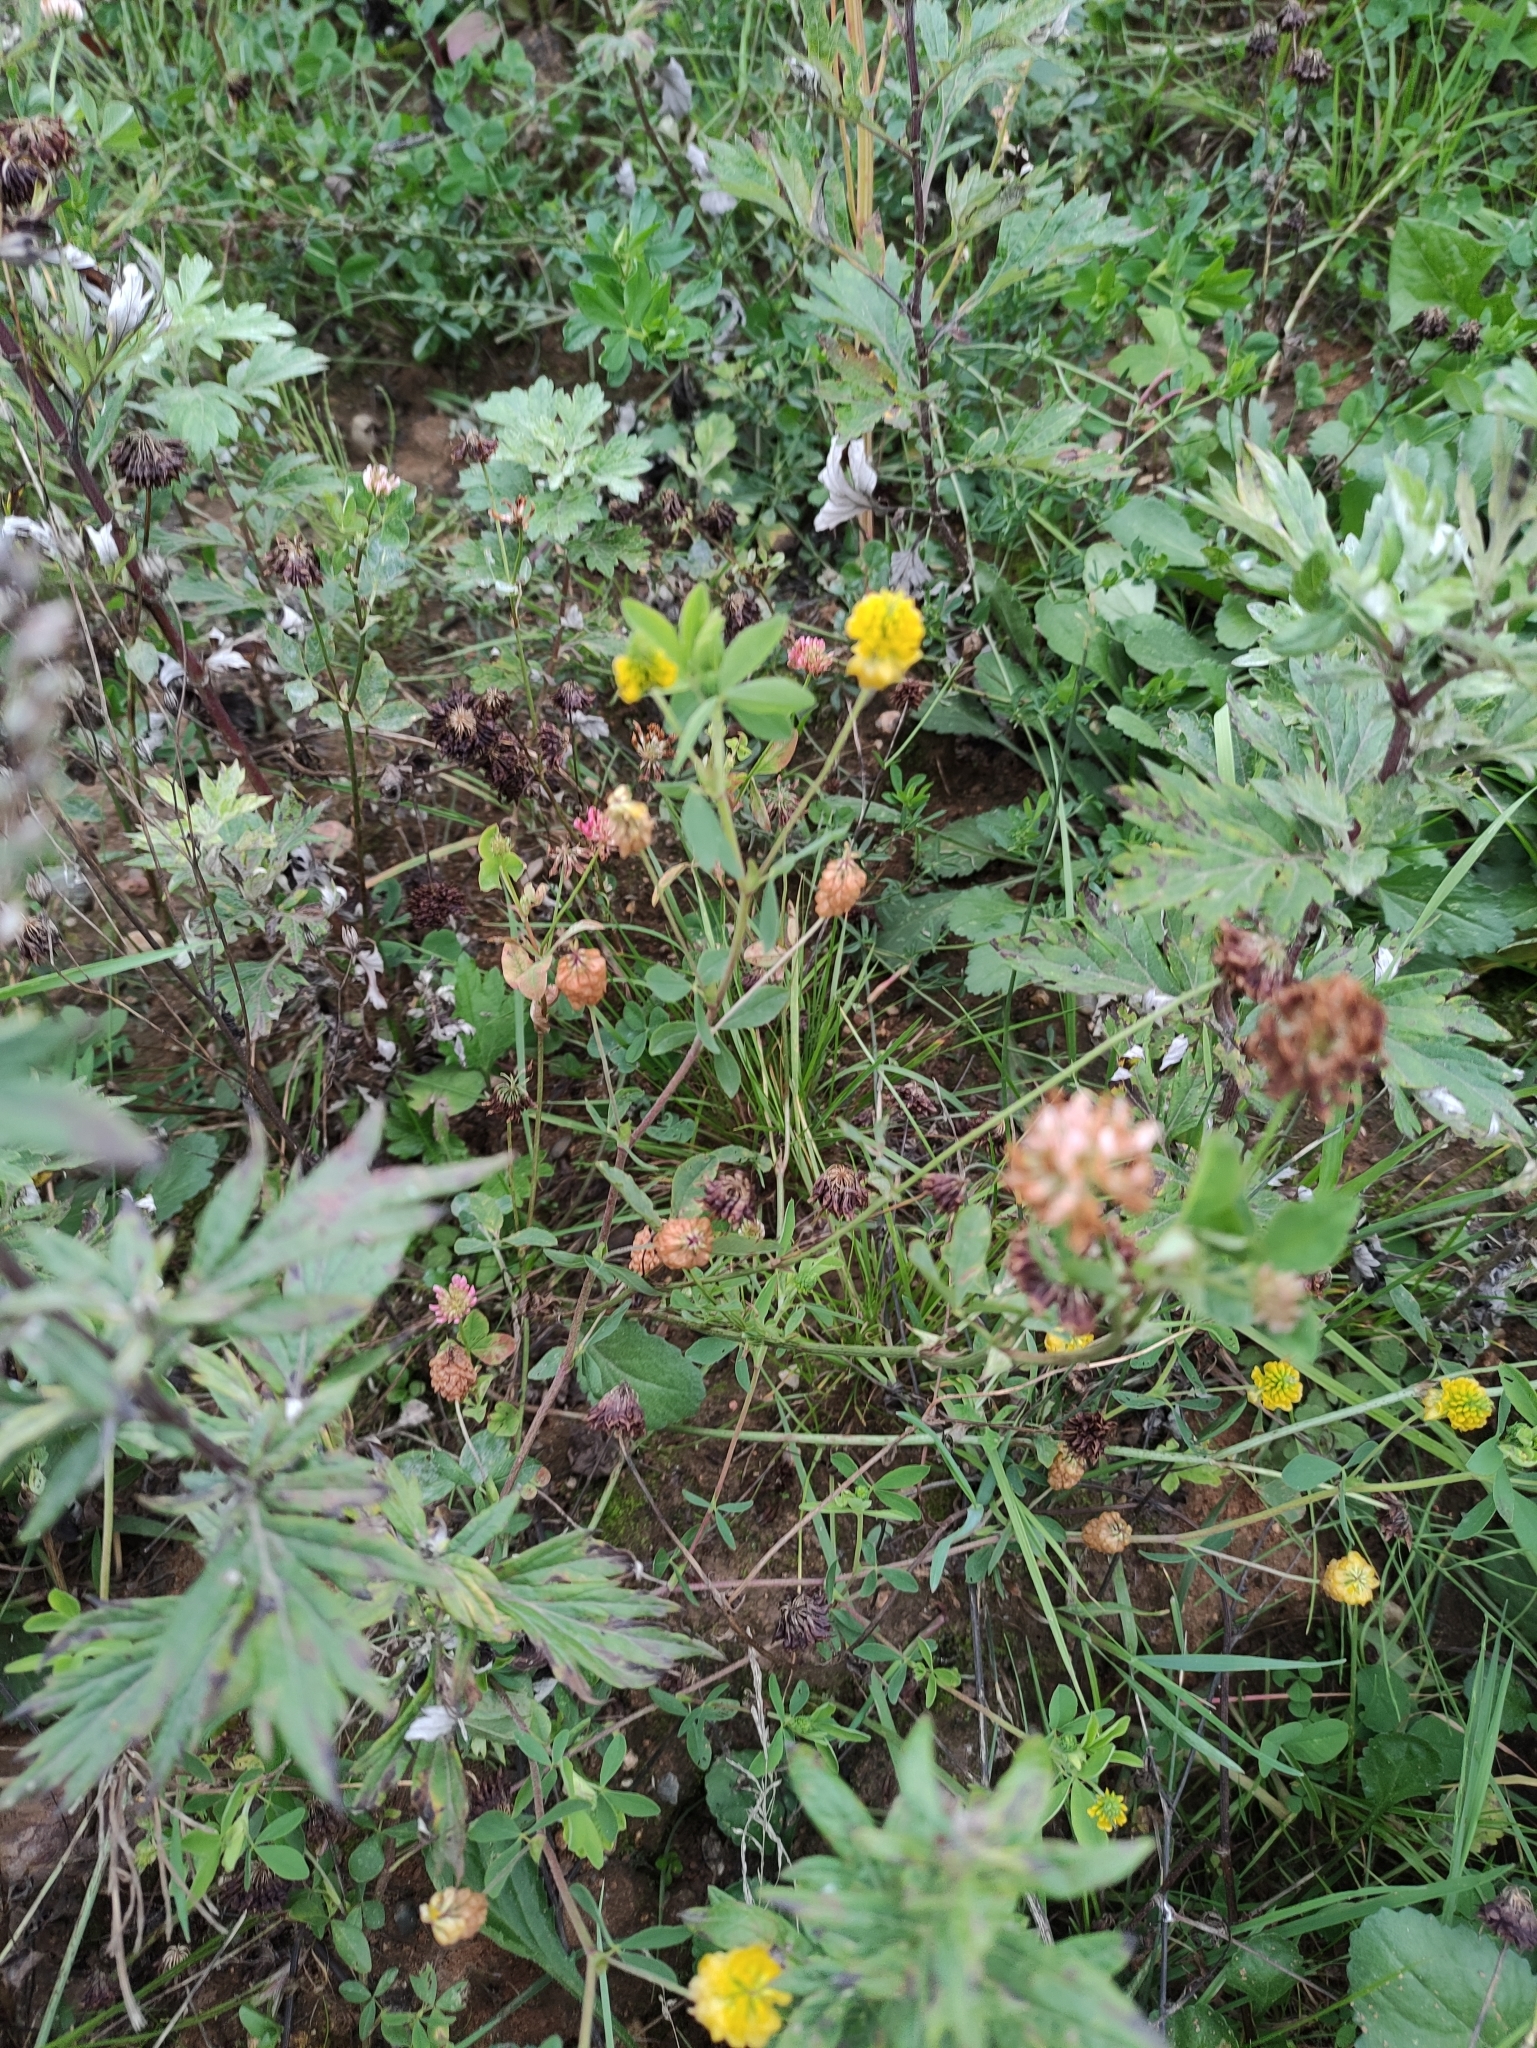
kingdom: Plantae
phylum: Tracheophyta
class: Magnoliopsida
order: Fabales
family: Fabaceae
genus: Trifolium
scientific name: Trifolium aureum
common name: Golden clover
